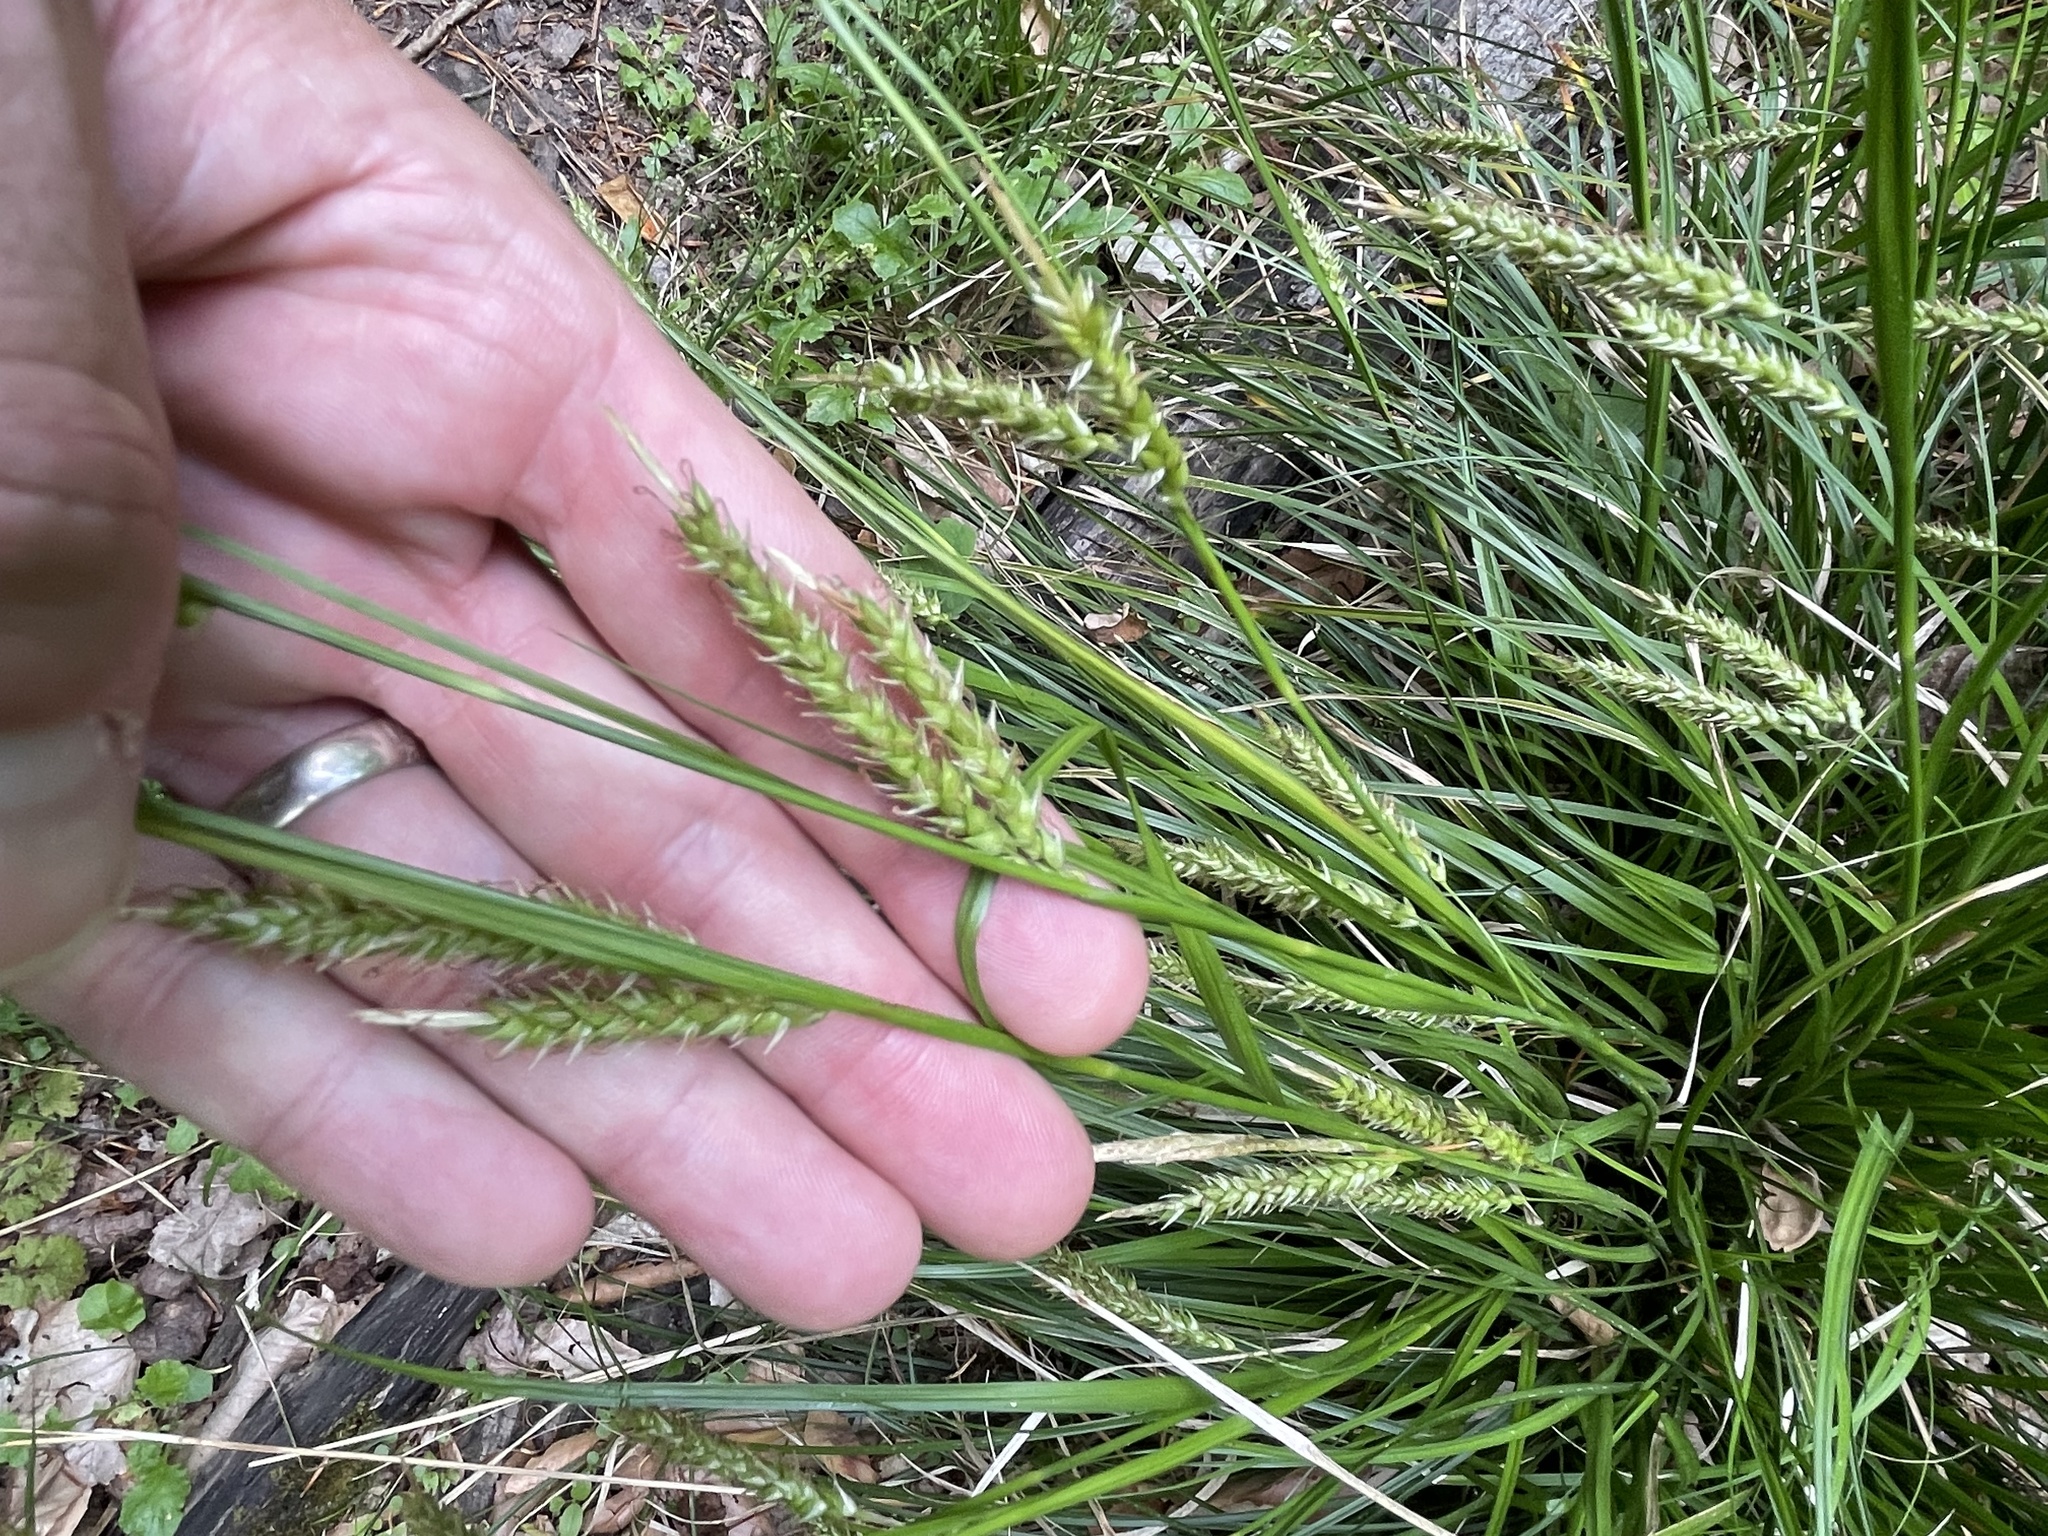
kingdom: Plantae
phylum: Tracheophyta
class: Liliopsida
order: Poales
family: Cyperaceae
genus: Carex
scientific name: Carex cherokeensis
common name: Cherokee sedge
